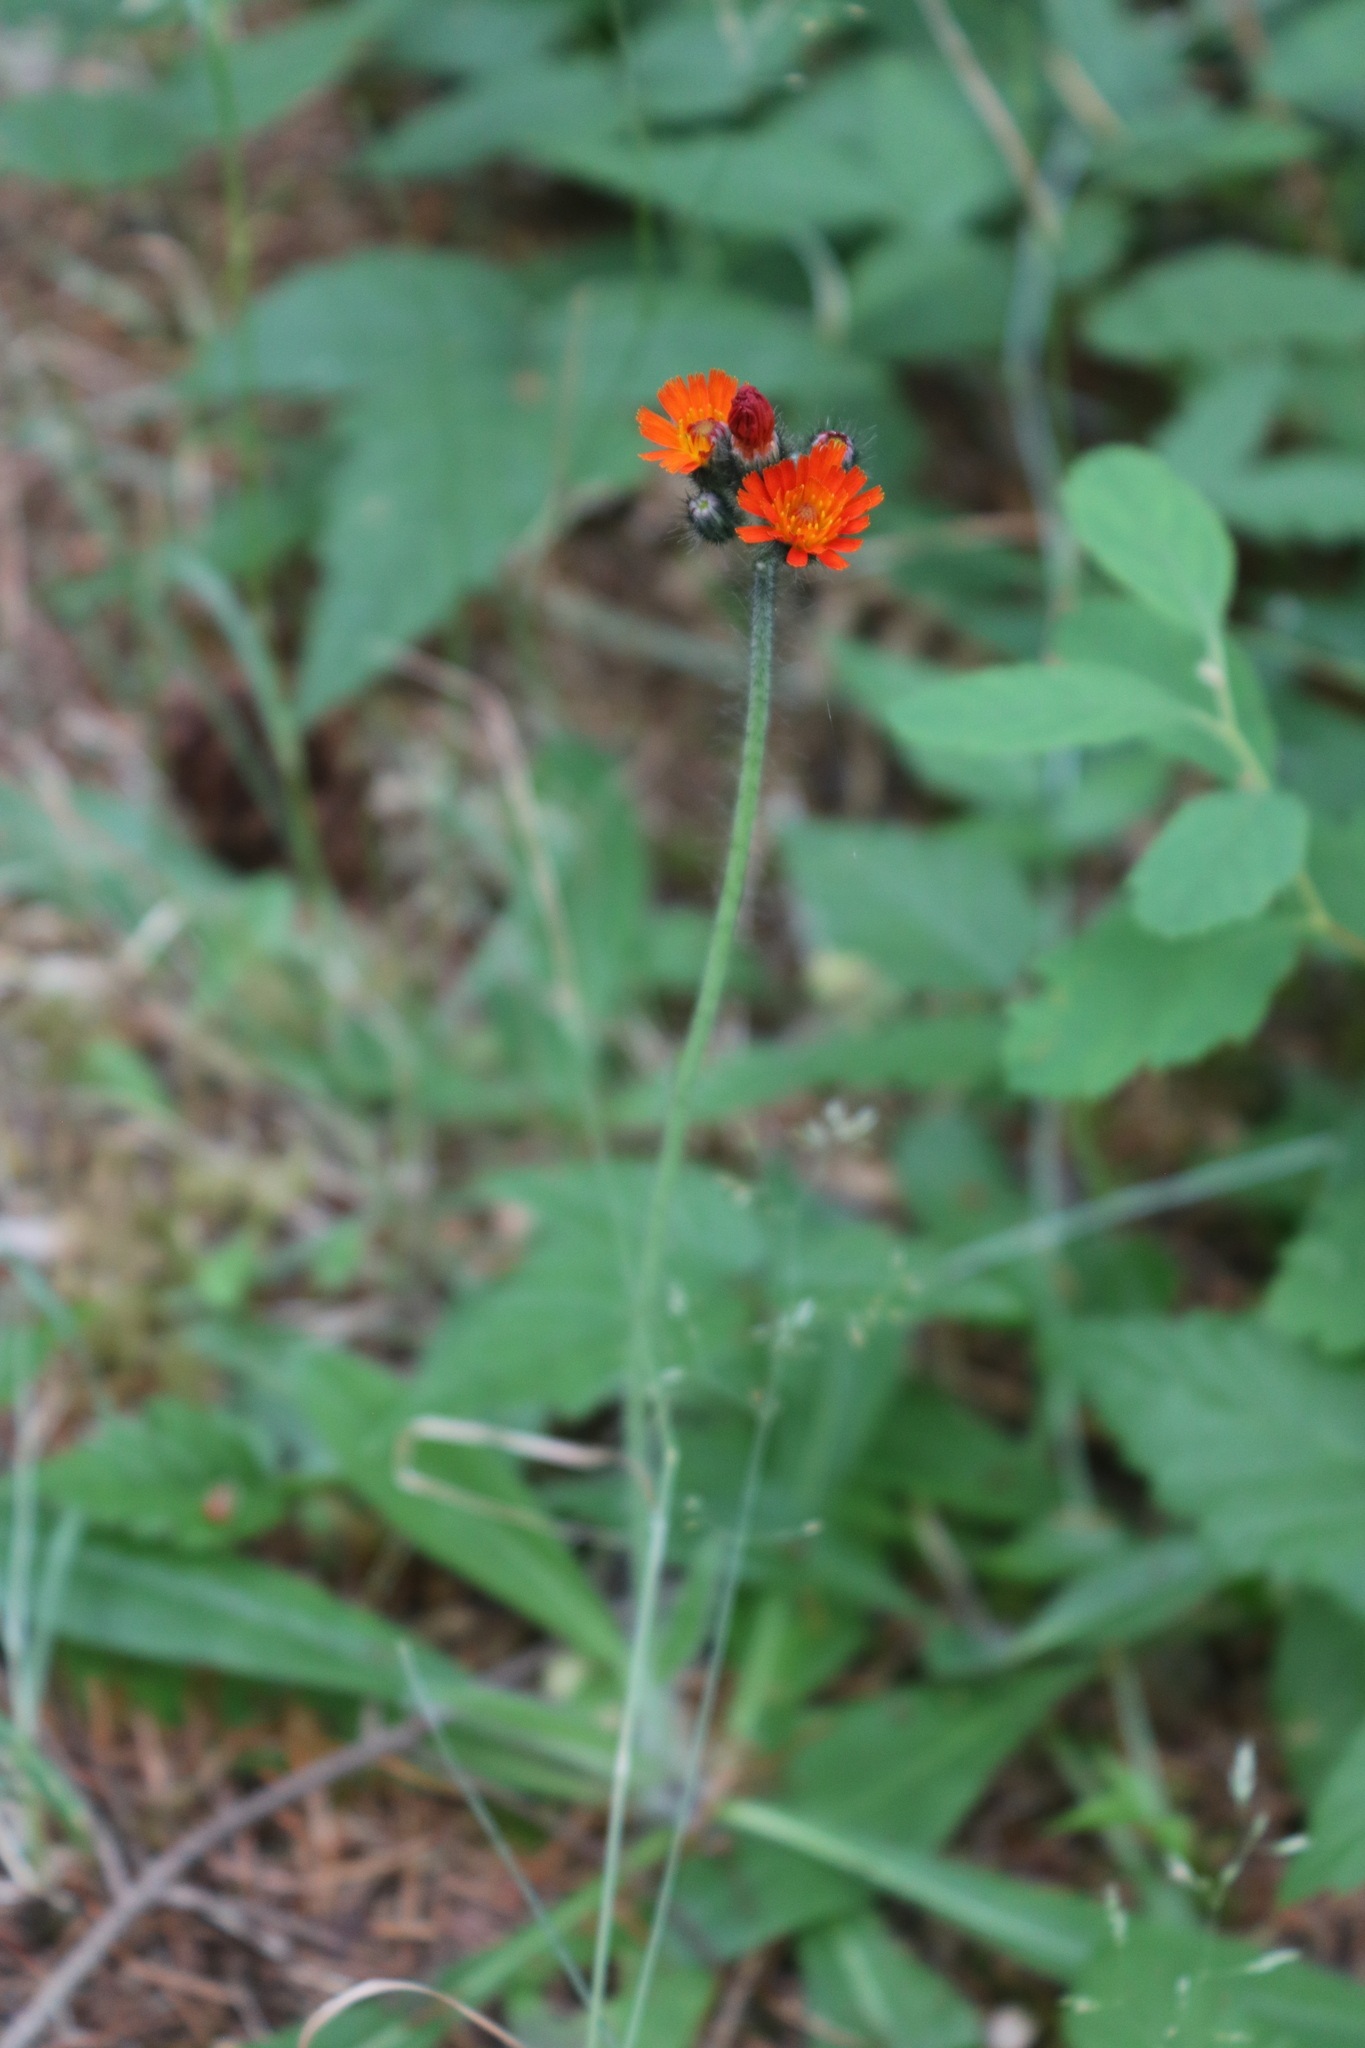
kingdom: Plantae
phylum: Tracheophyta
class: Magnoliopsida
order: Asterales
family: Asteraceae
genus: Pilosella
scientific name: Pilosella aurantiaca
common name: Fox-and-cubs
